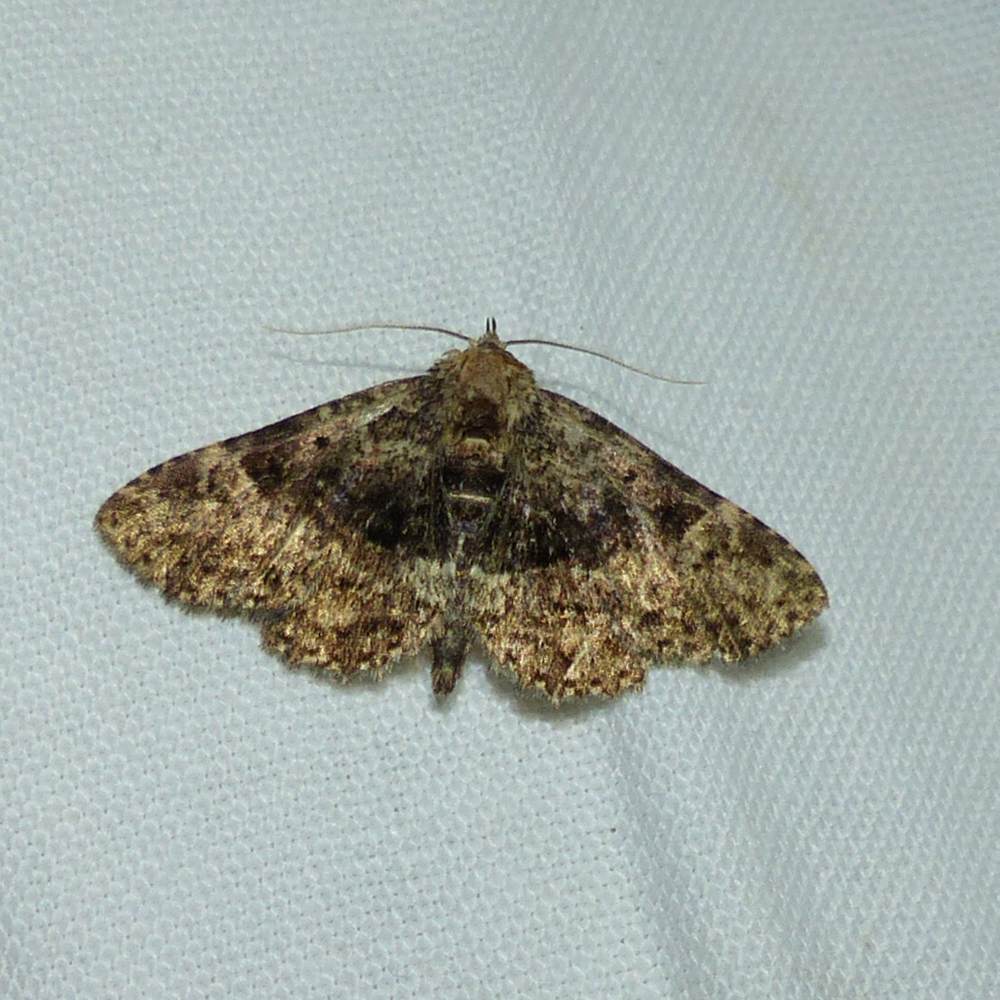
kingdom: Animalia
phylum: Arthropoda
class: Insecta
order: Lepidoptera
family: Erebidae
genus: Metalectra
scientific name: Metalectra discalis
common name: Common fungus moth
